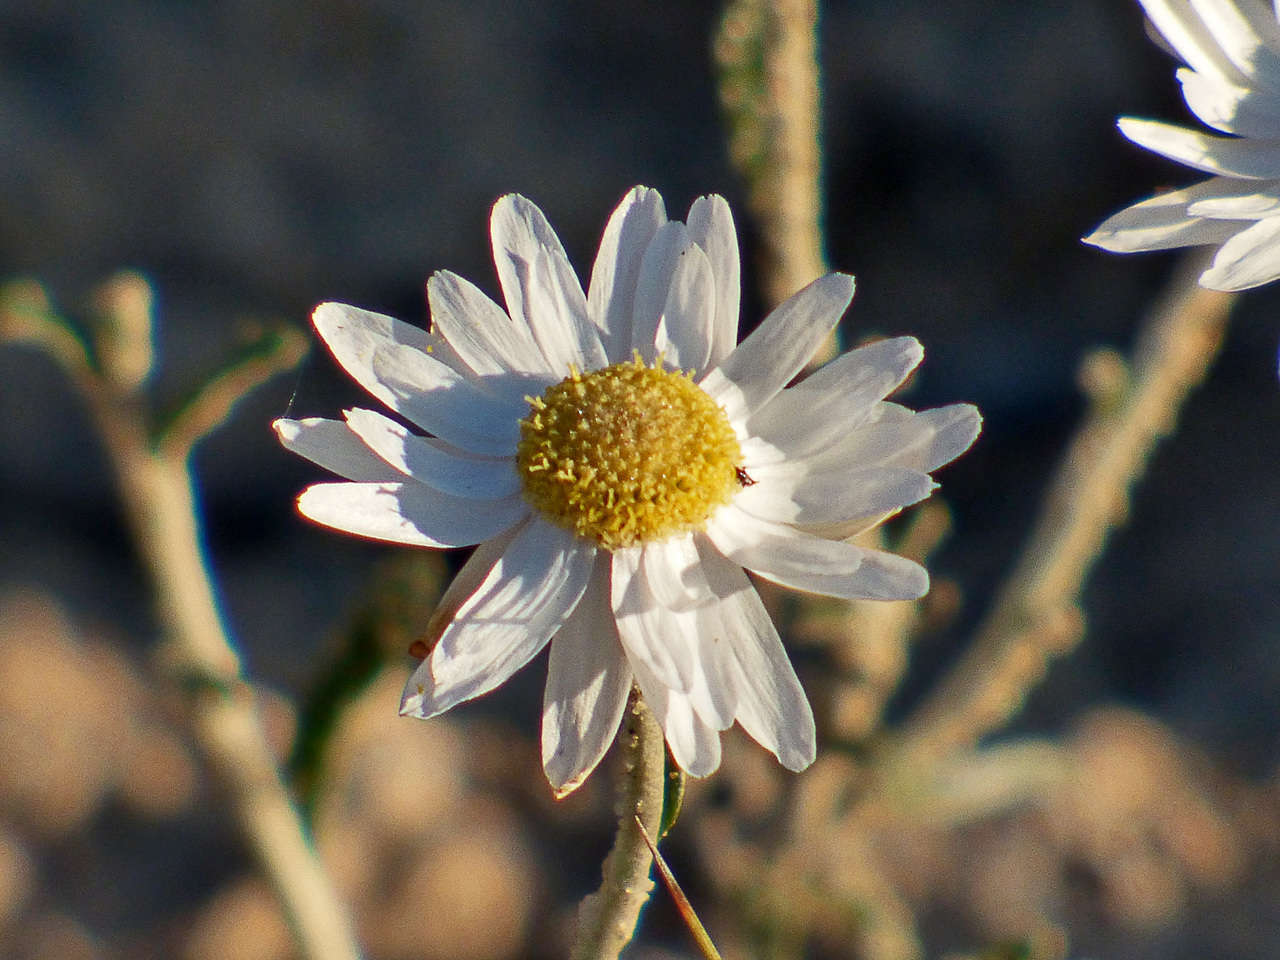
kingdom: Plantae
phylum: Tracheophyta
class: Magnoliopsida
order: Asterales
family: Asteraceae
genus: Argentipallium
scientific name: Argentipallium obtusifolium
